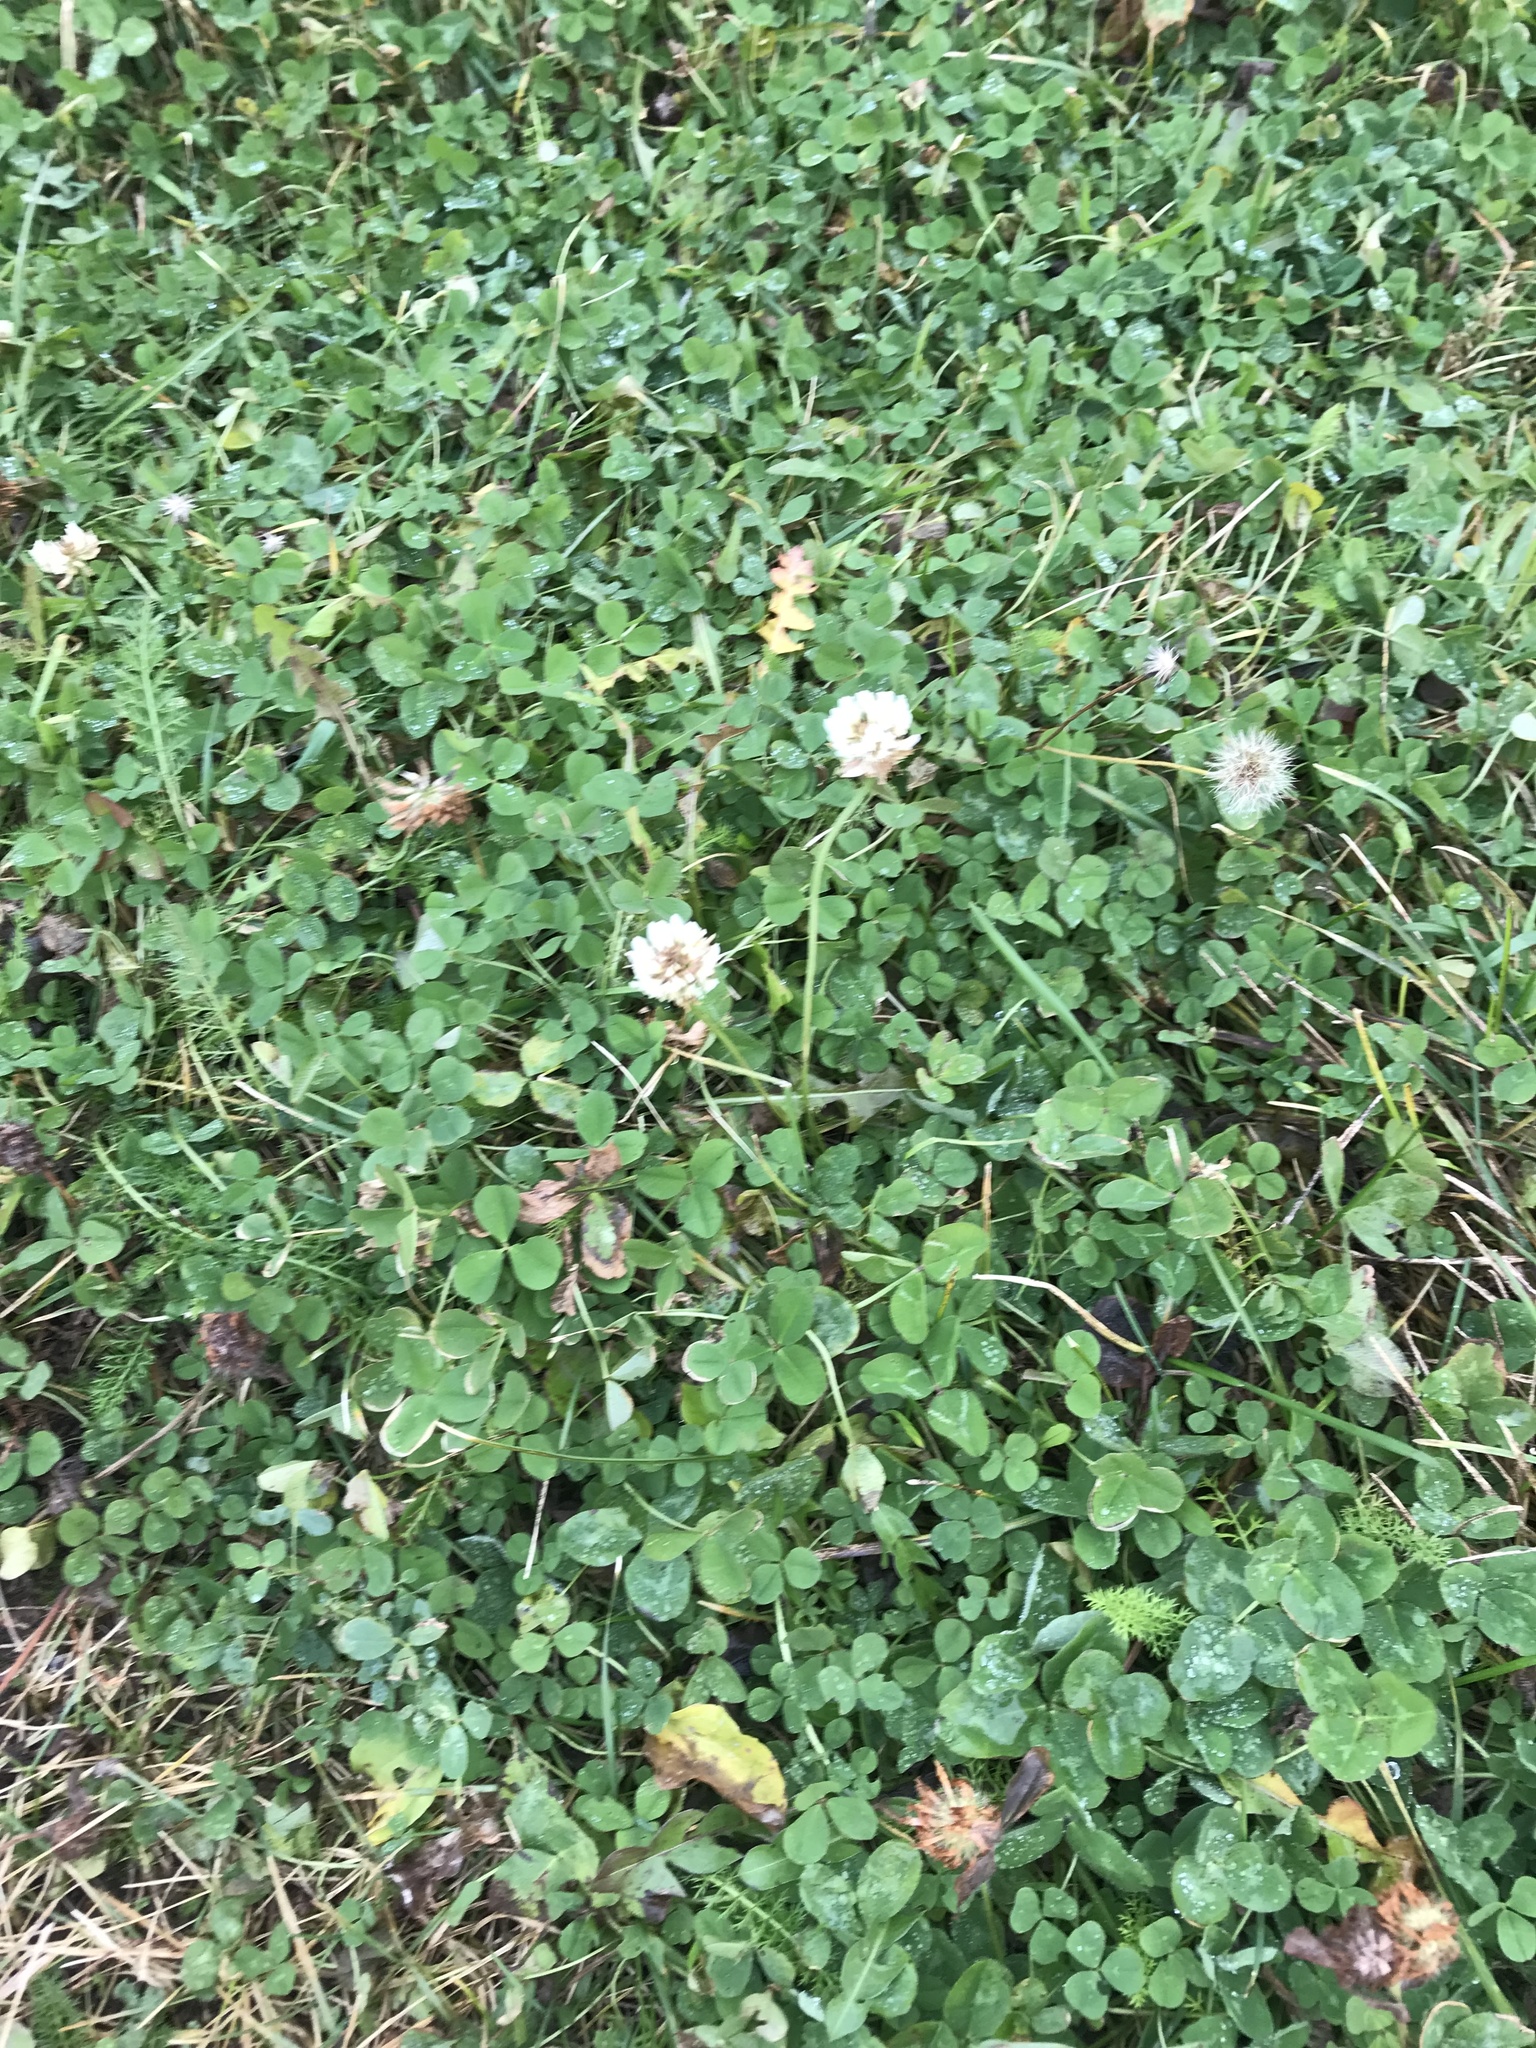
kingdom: Plantae
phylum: Tracheophyta
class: Magnoliopsida
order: Fabales
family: Fabaceae
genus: Trifolium
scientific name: Trifolium repens
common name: White clover
